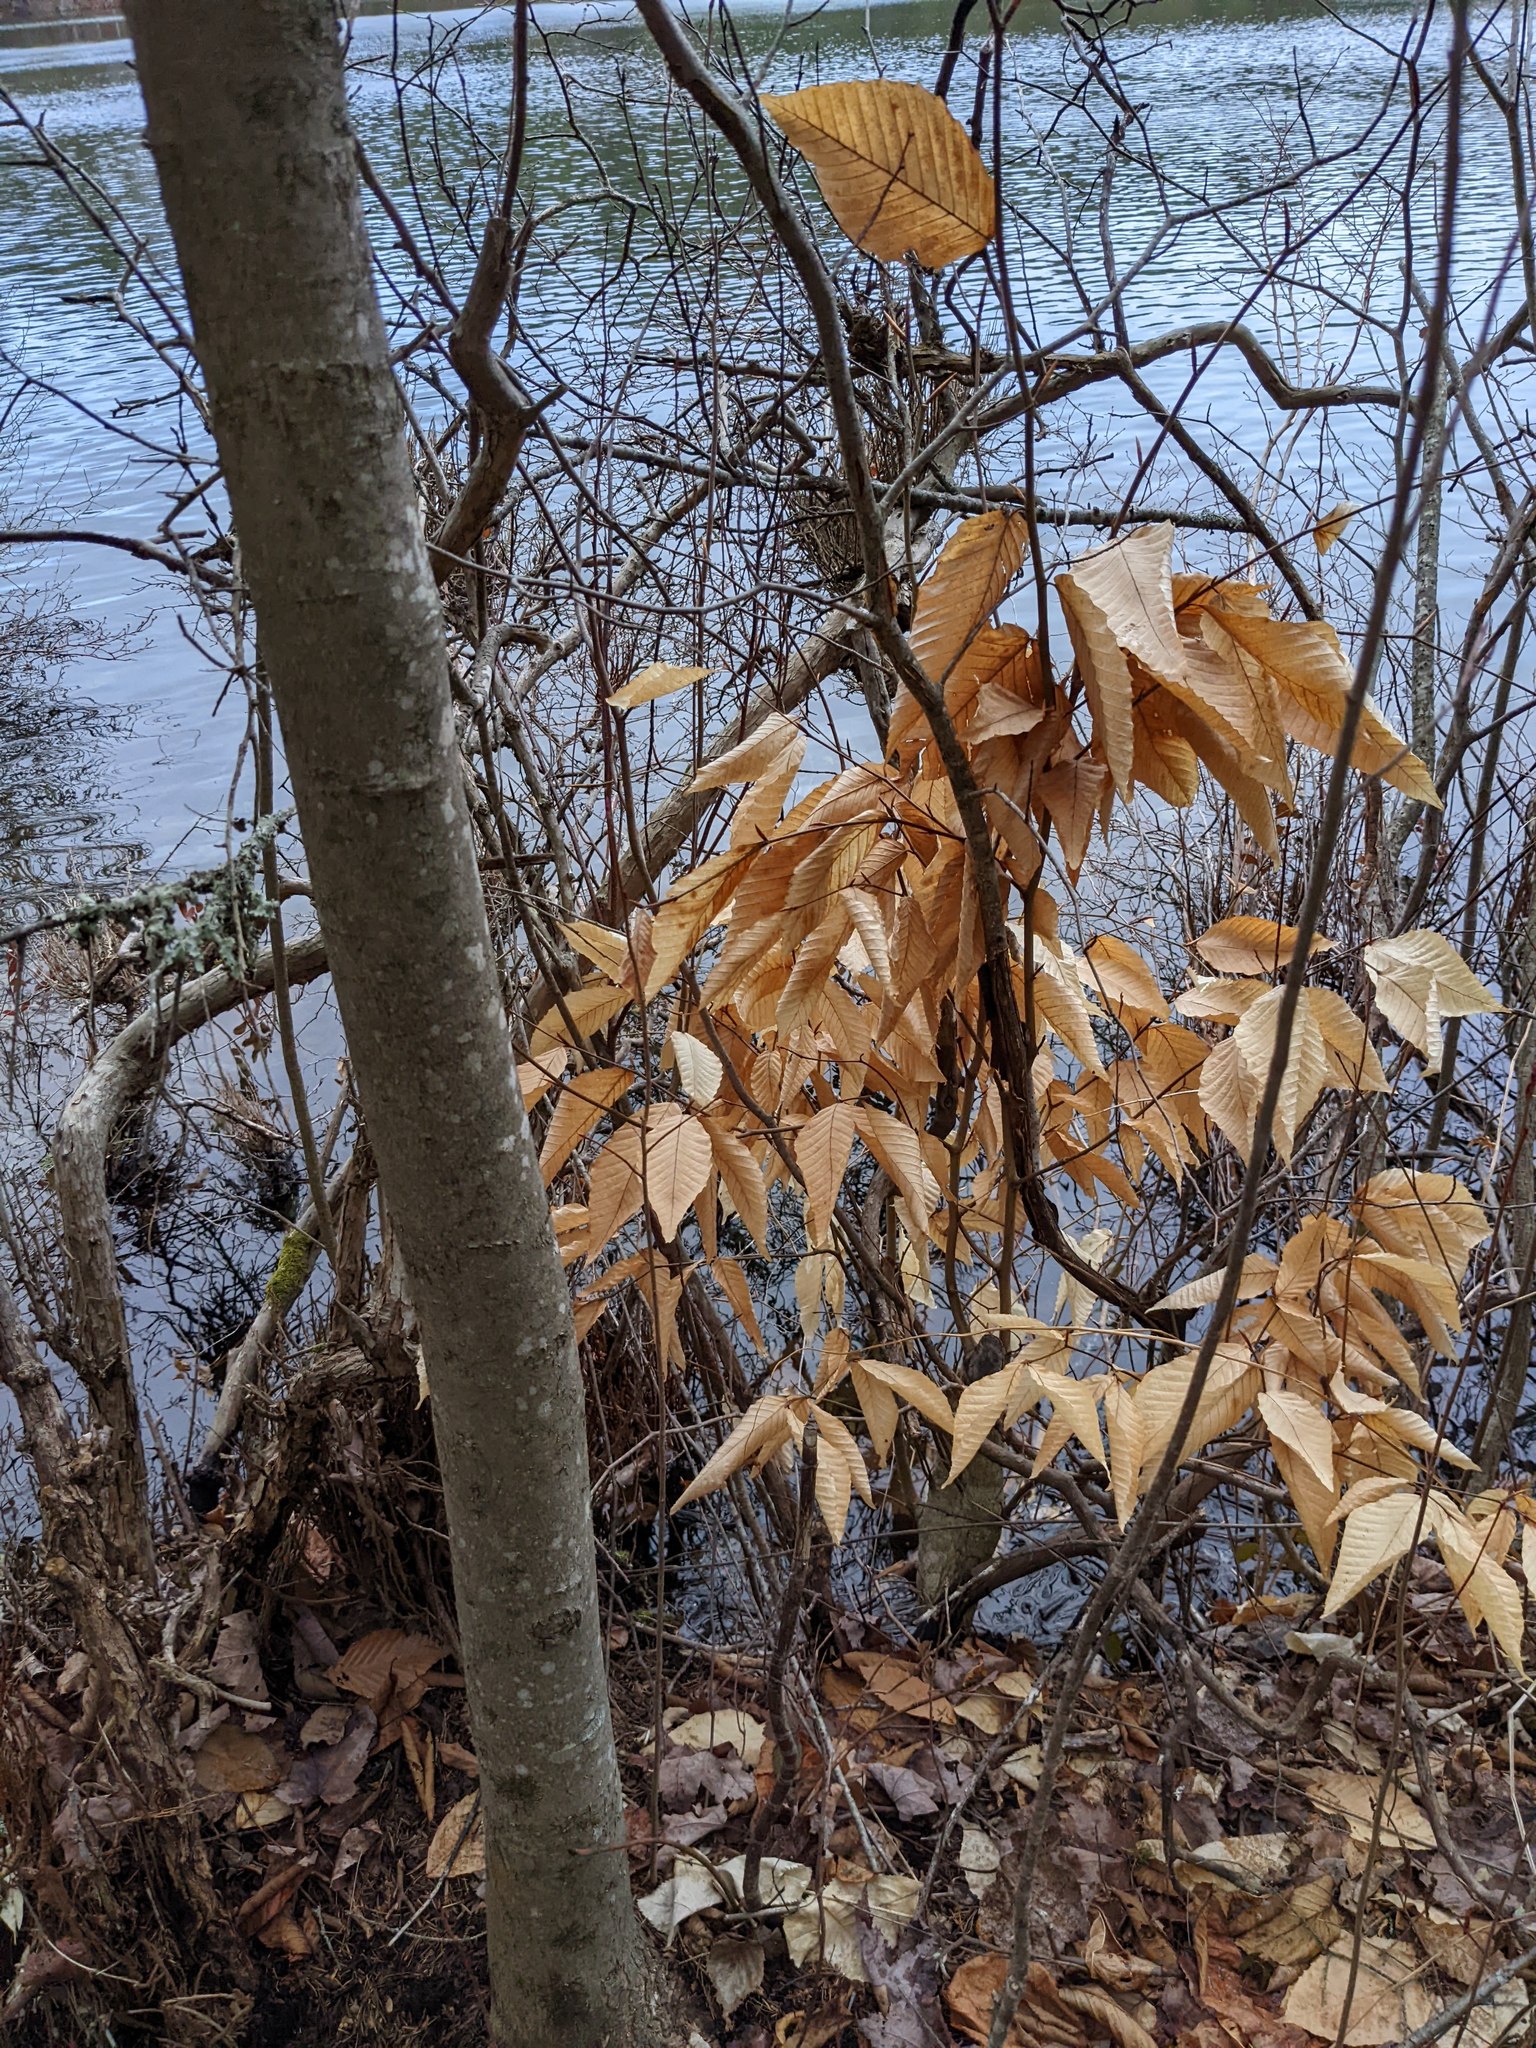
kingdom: Plantae
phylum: Tracheophyta
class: Magnoliopsida
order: Fagales
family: Fagaceae
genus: Fagus
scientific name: Fagus grandifolia
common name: American beech
